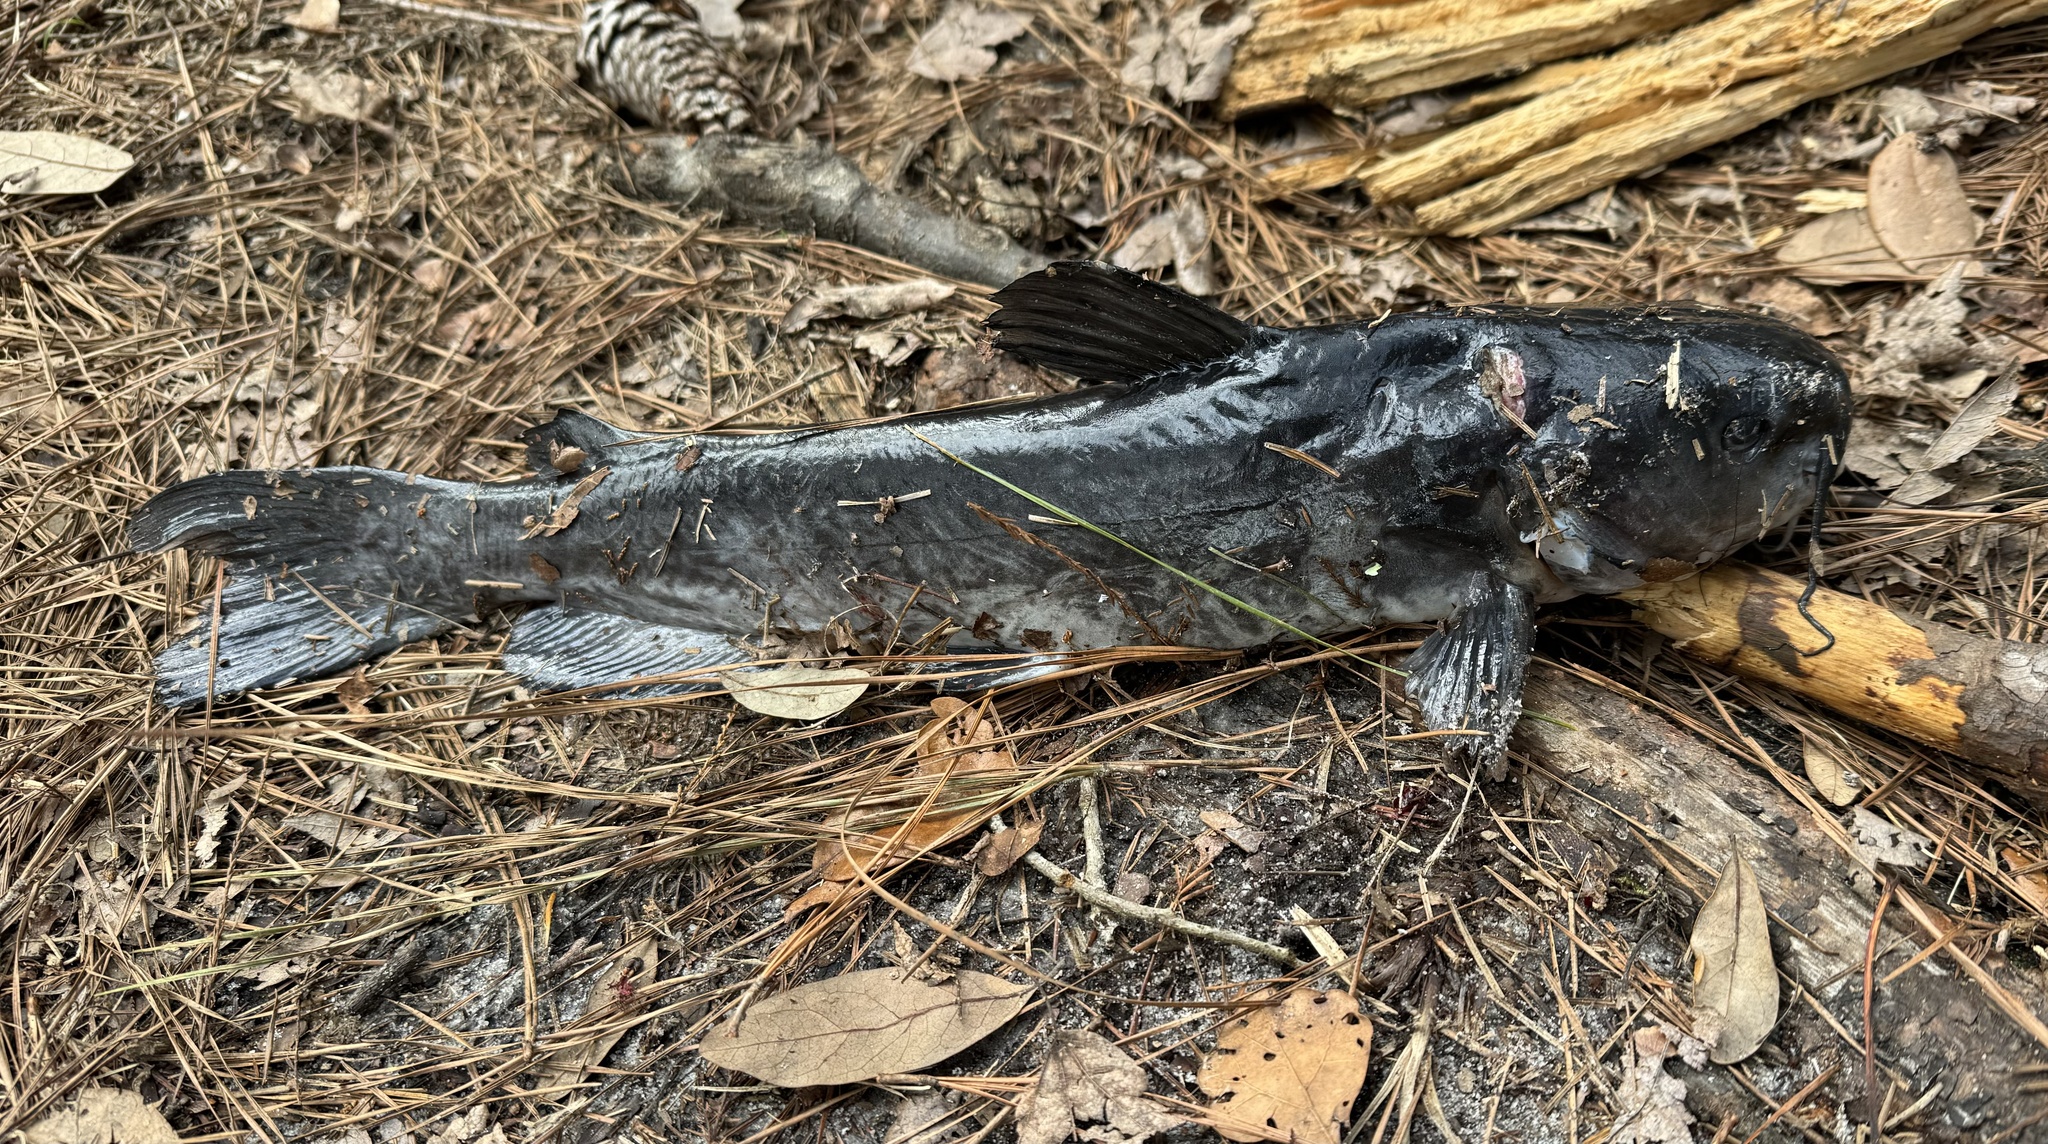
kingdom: Animalia
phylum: Chordata
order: Siluriformes
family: Ictaluridae
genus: Ameiurus
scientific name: Ameiurus catus
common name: White catfish
